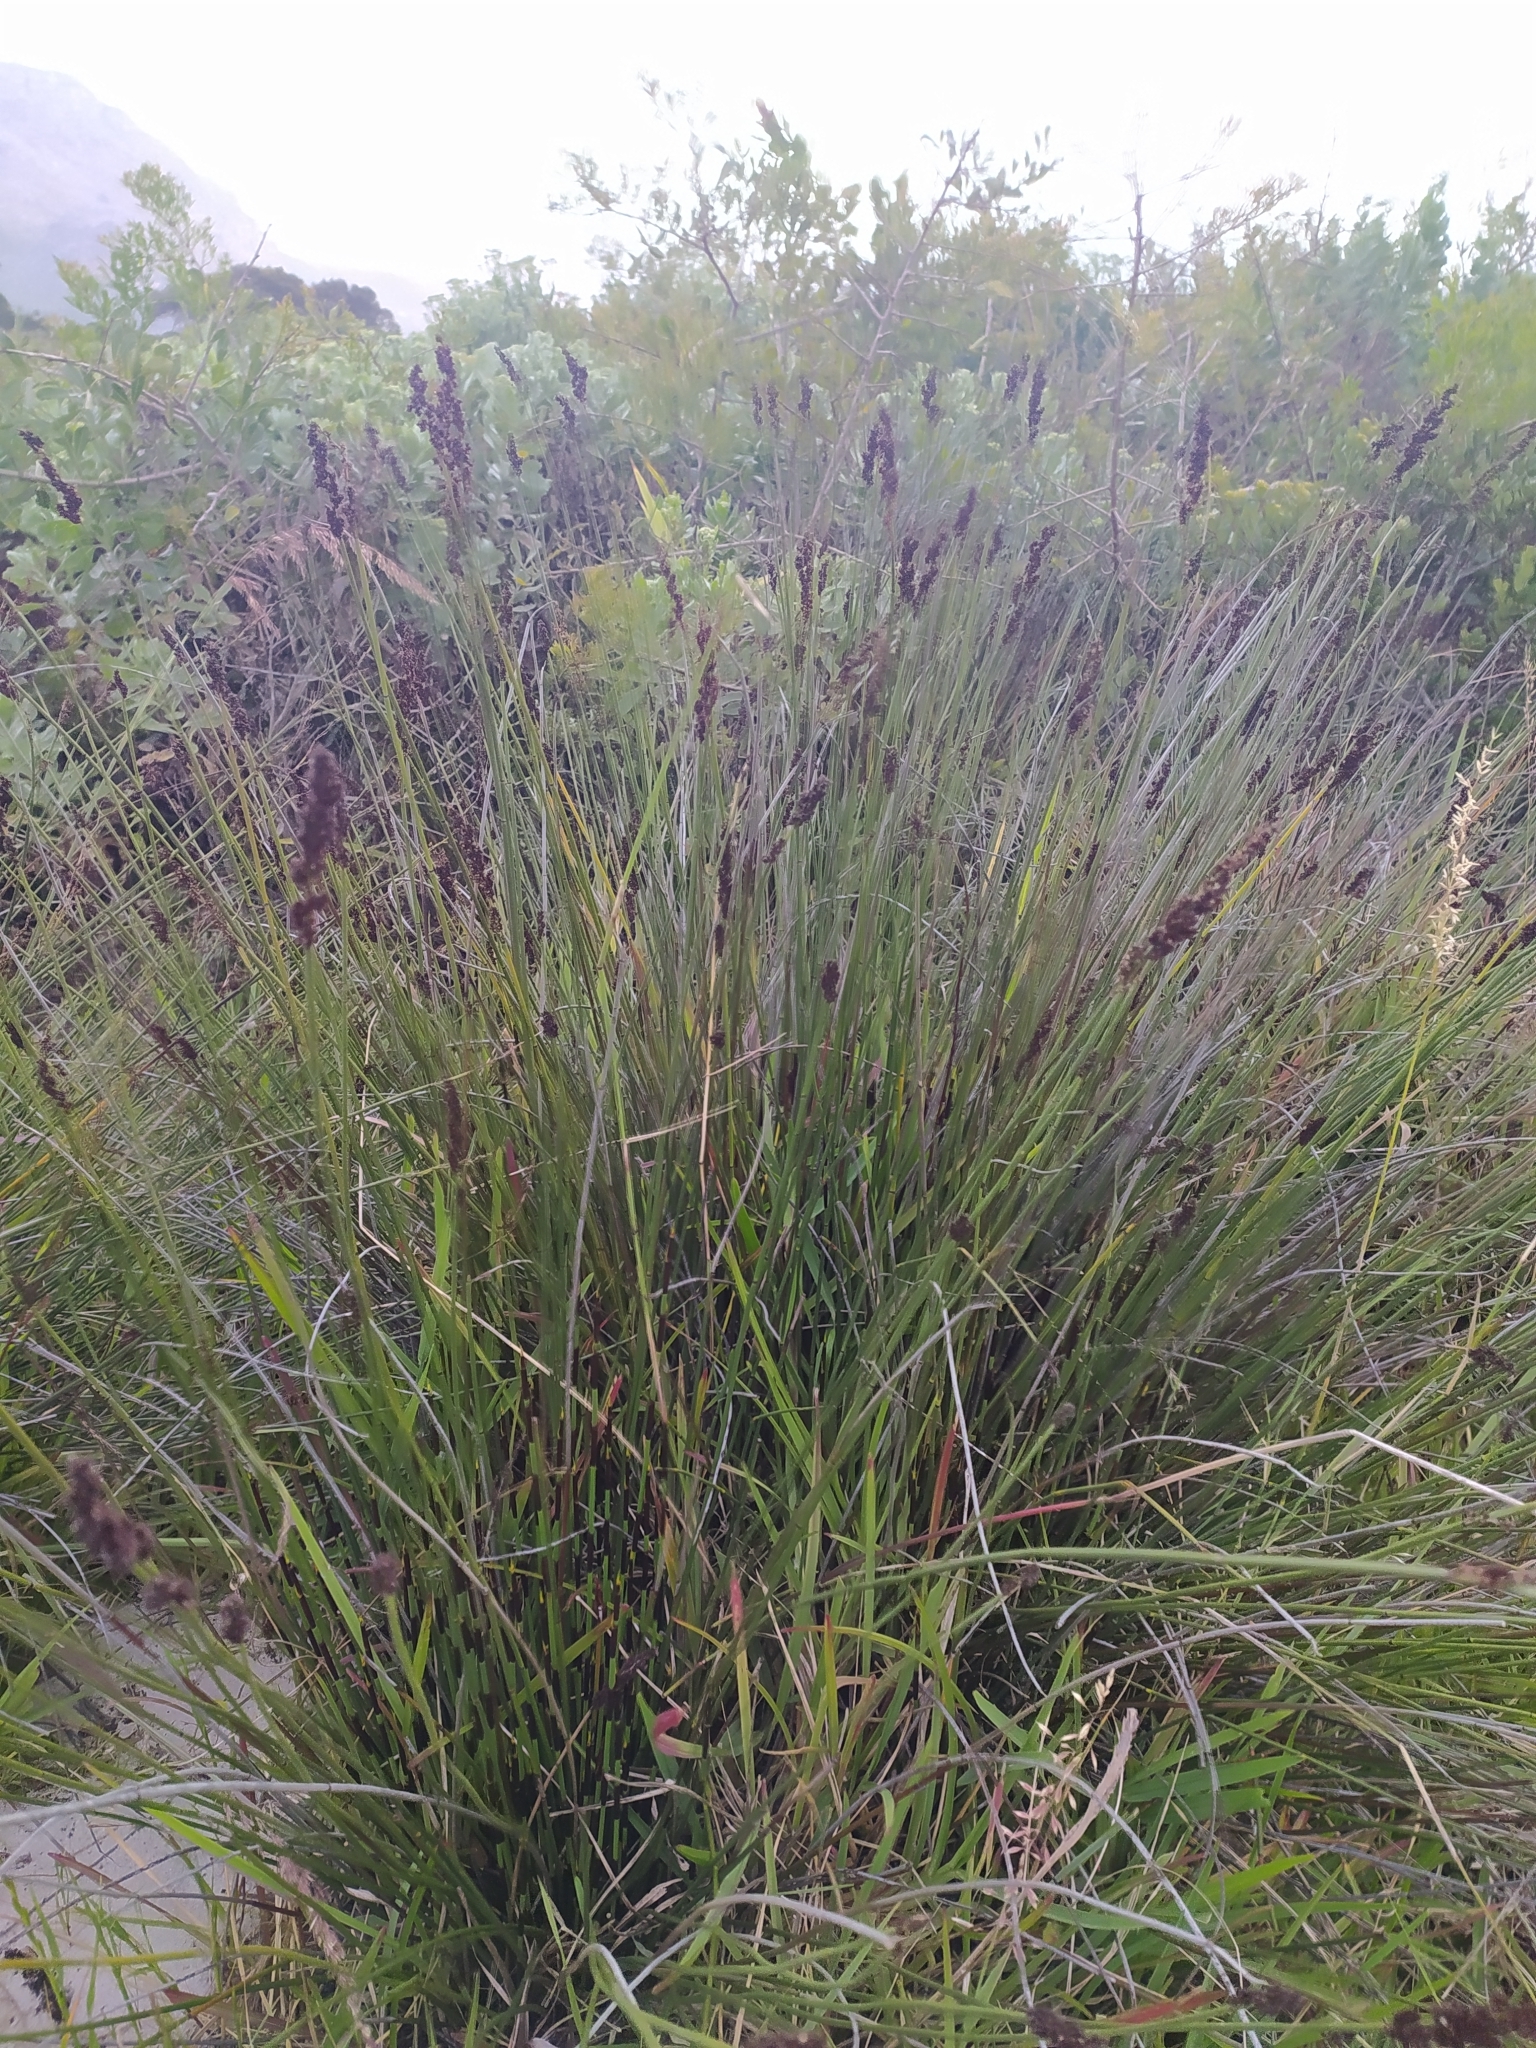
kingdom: Plantae
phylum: Tracheophyta
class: Liliopsida
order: Poales
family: Restionaceae
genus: Elegia
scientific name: Elegia tectorum
